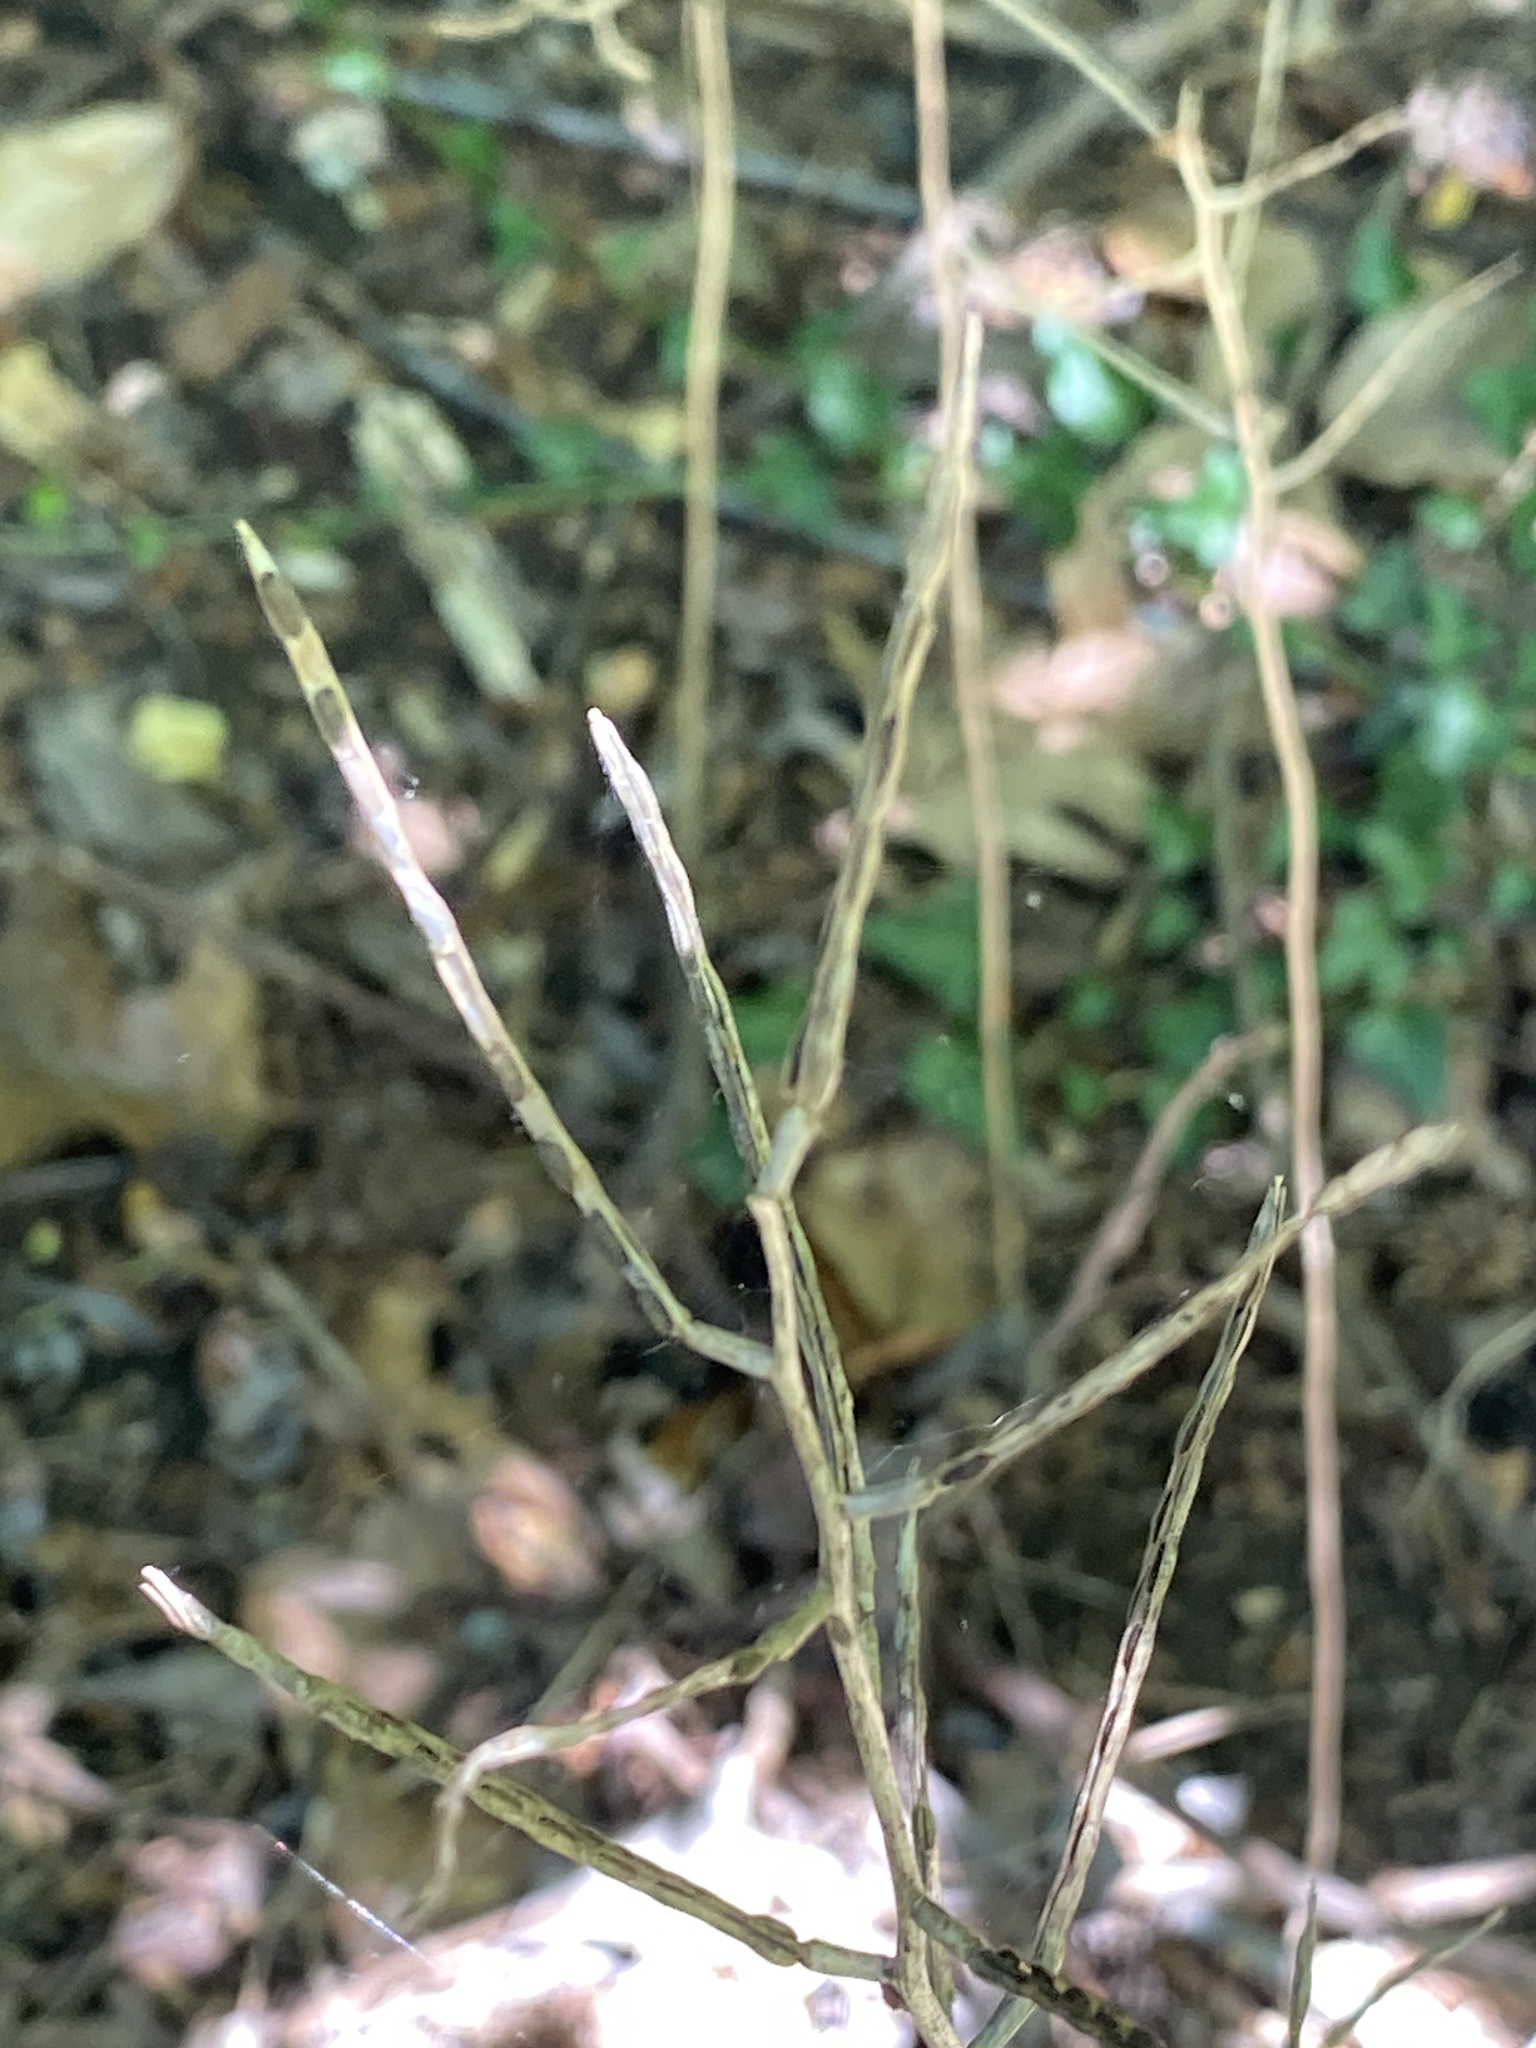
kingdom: Plantae
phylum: Tracheophyta
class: Magnoliopsida
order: Brassicales
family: Brassicaceae
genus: Alliaria
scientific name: Alliaria petiolata
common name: Garlic mustard
